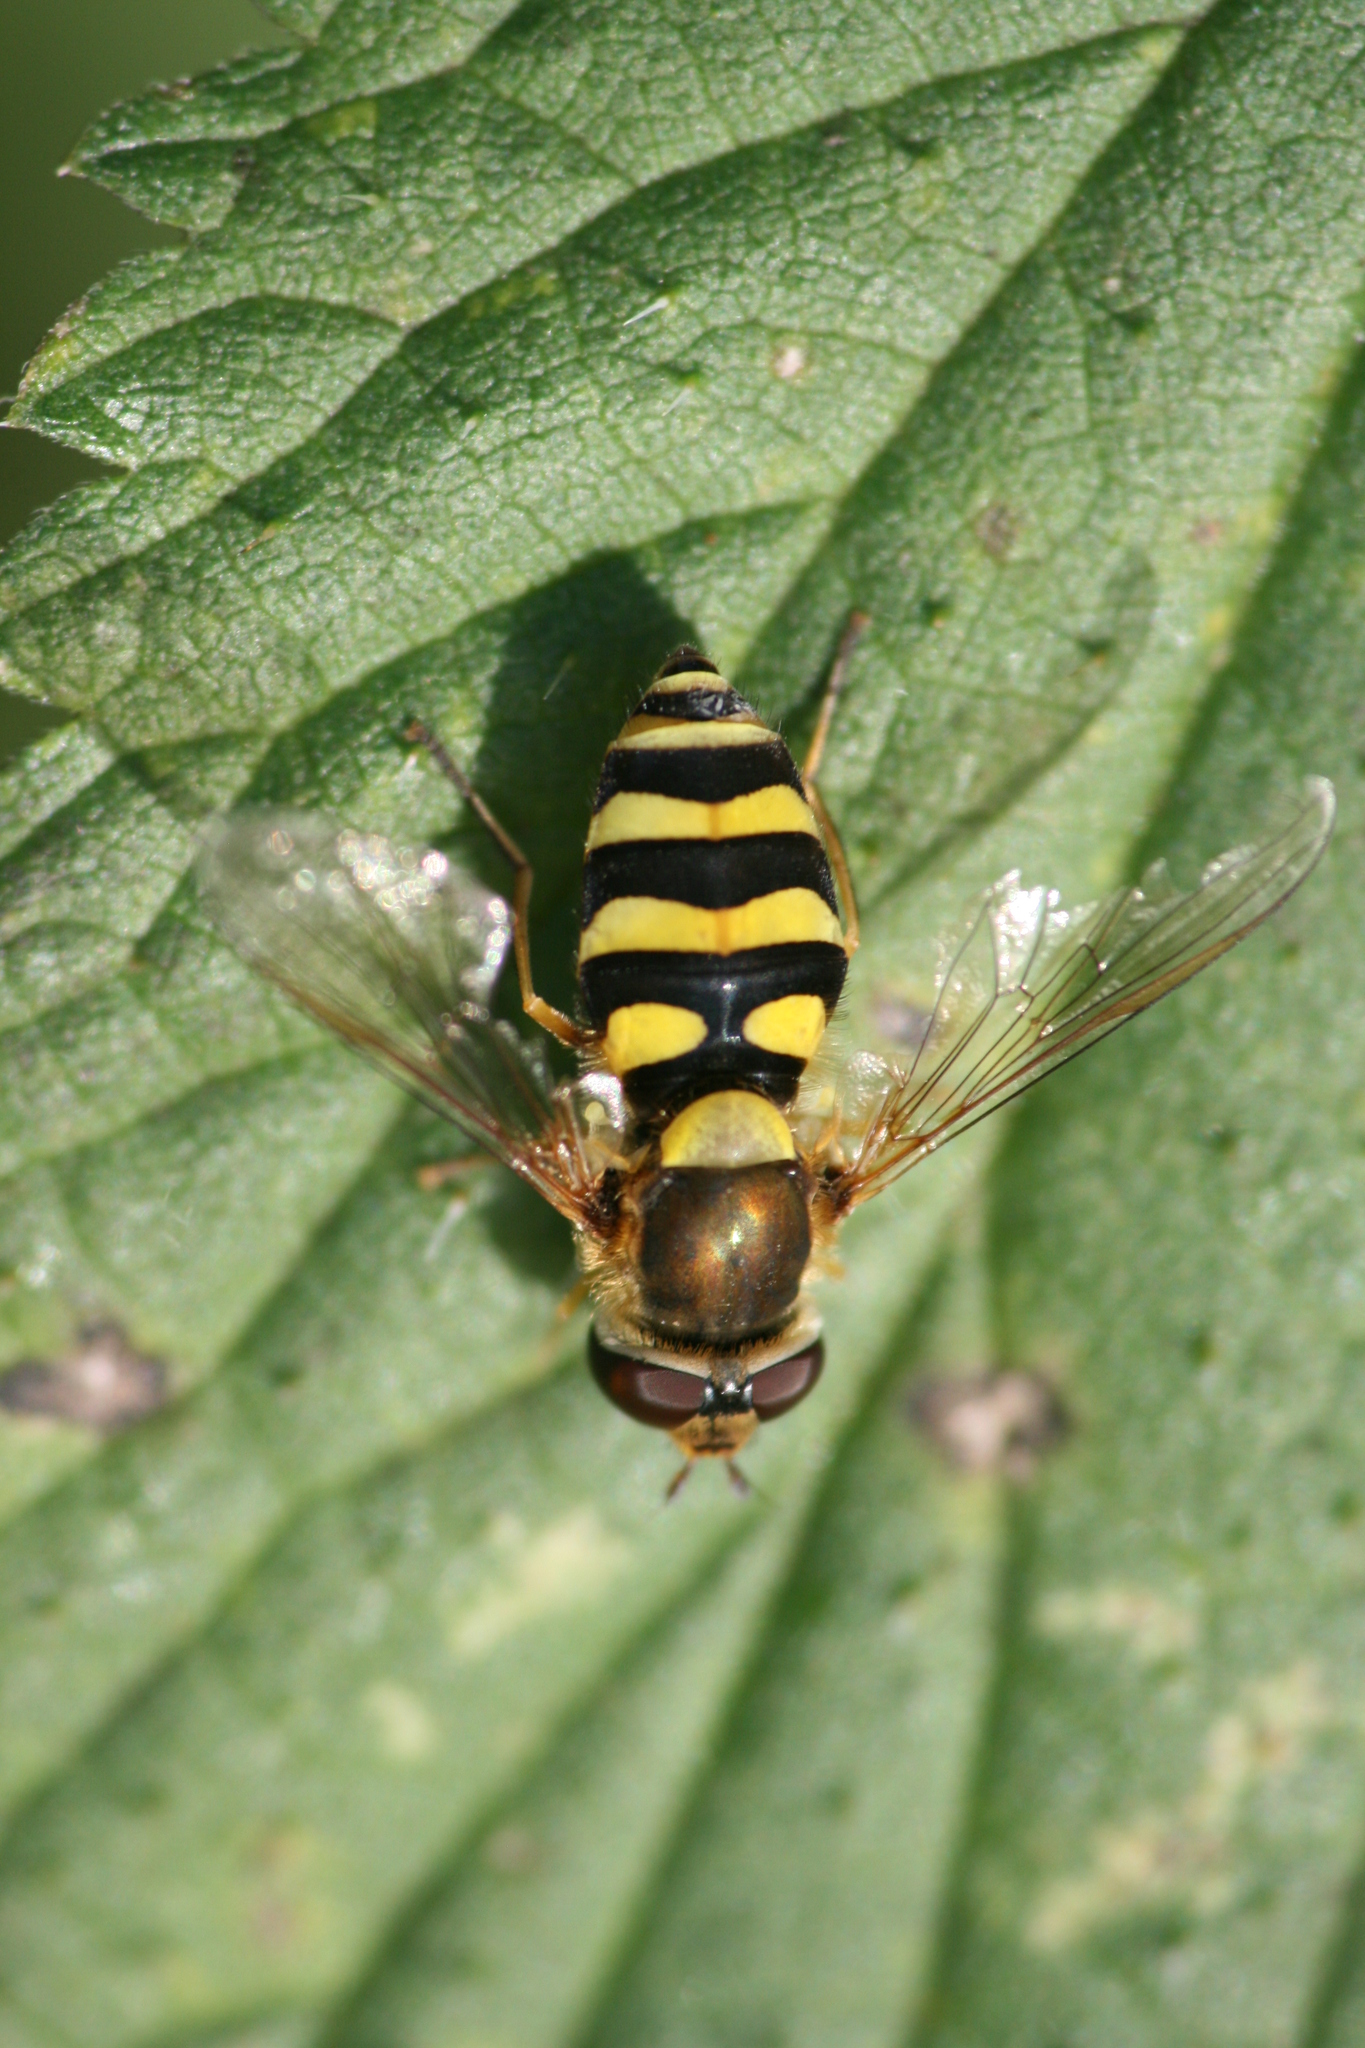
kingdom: Animalia
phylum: Arthropoda
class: Insecta
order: Diptera
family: Syrphidae
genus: Syrphus
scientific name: Syrphus
